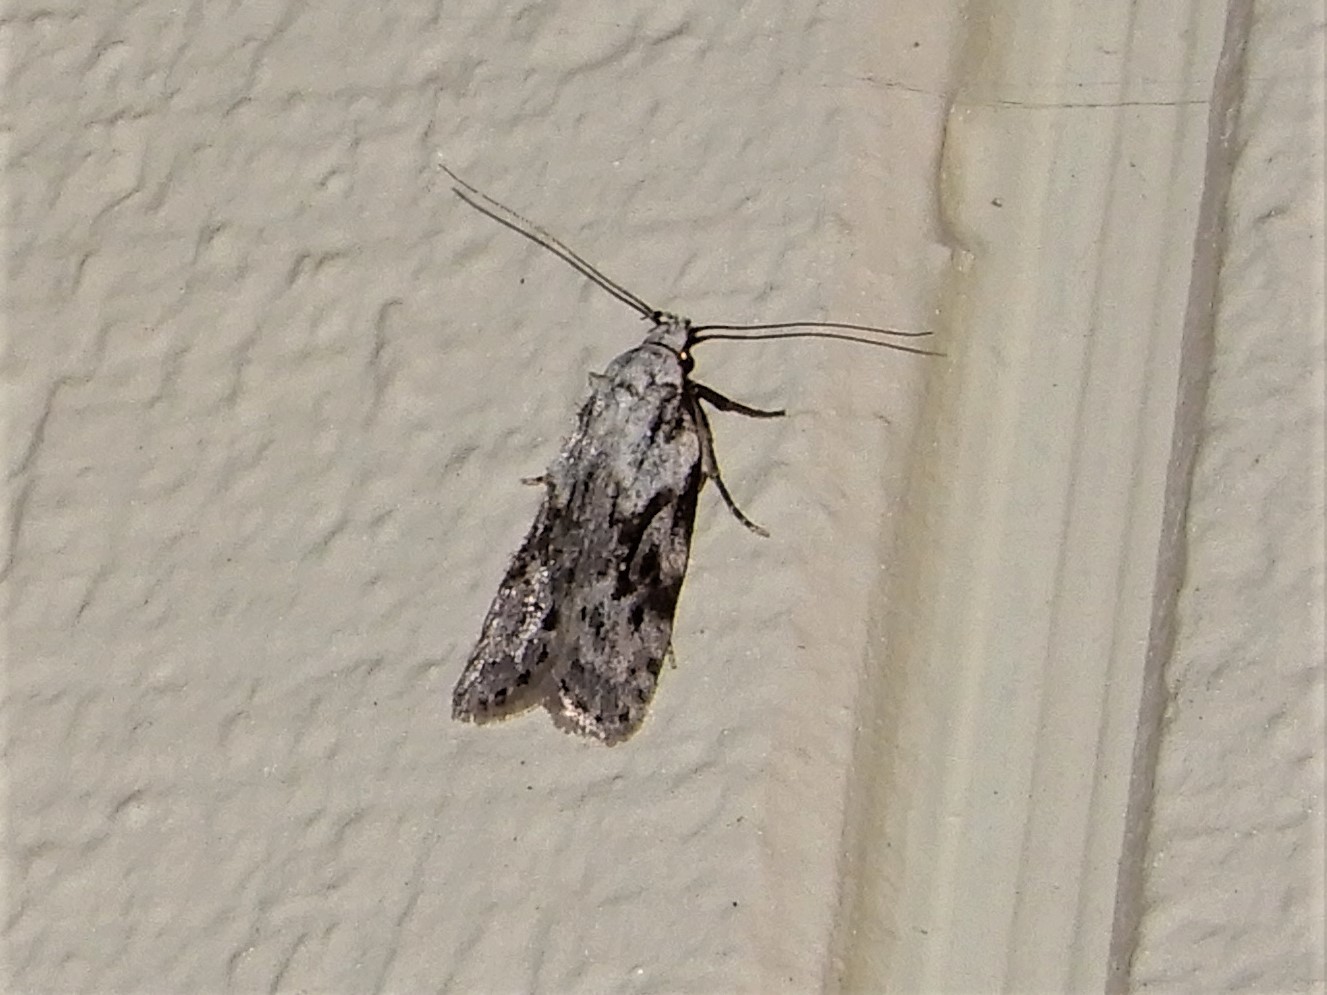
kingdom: Animalia
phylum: Arthropoda
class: Insecta
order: Lepidoptera
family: Oecophoridae
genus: Izatha
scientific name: Izatha mesoschista
